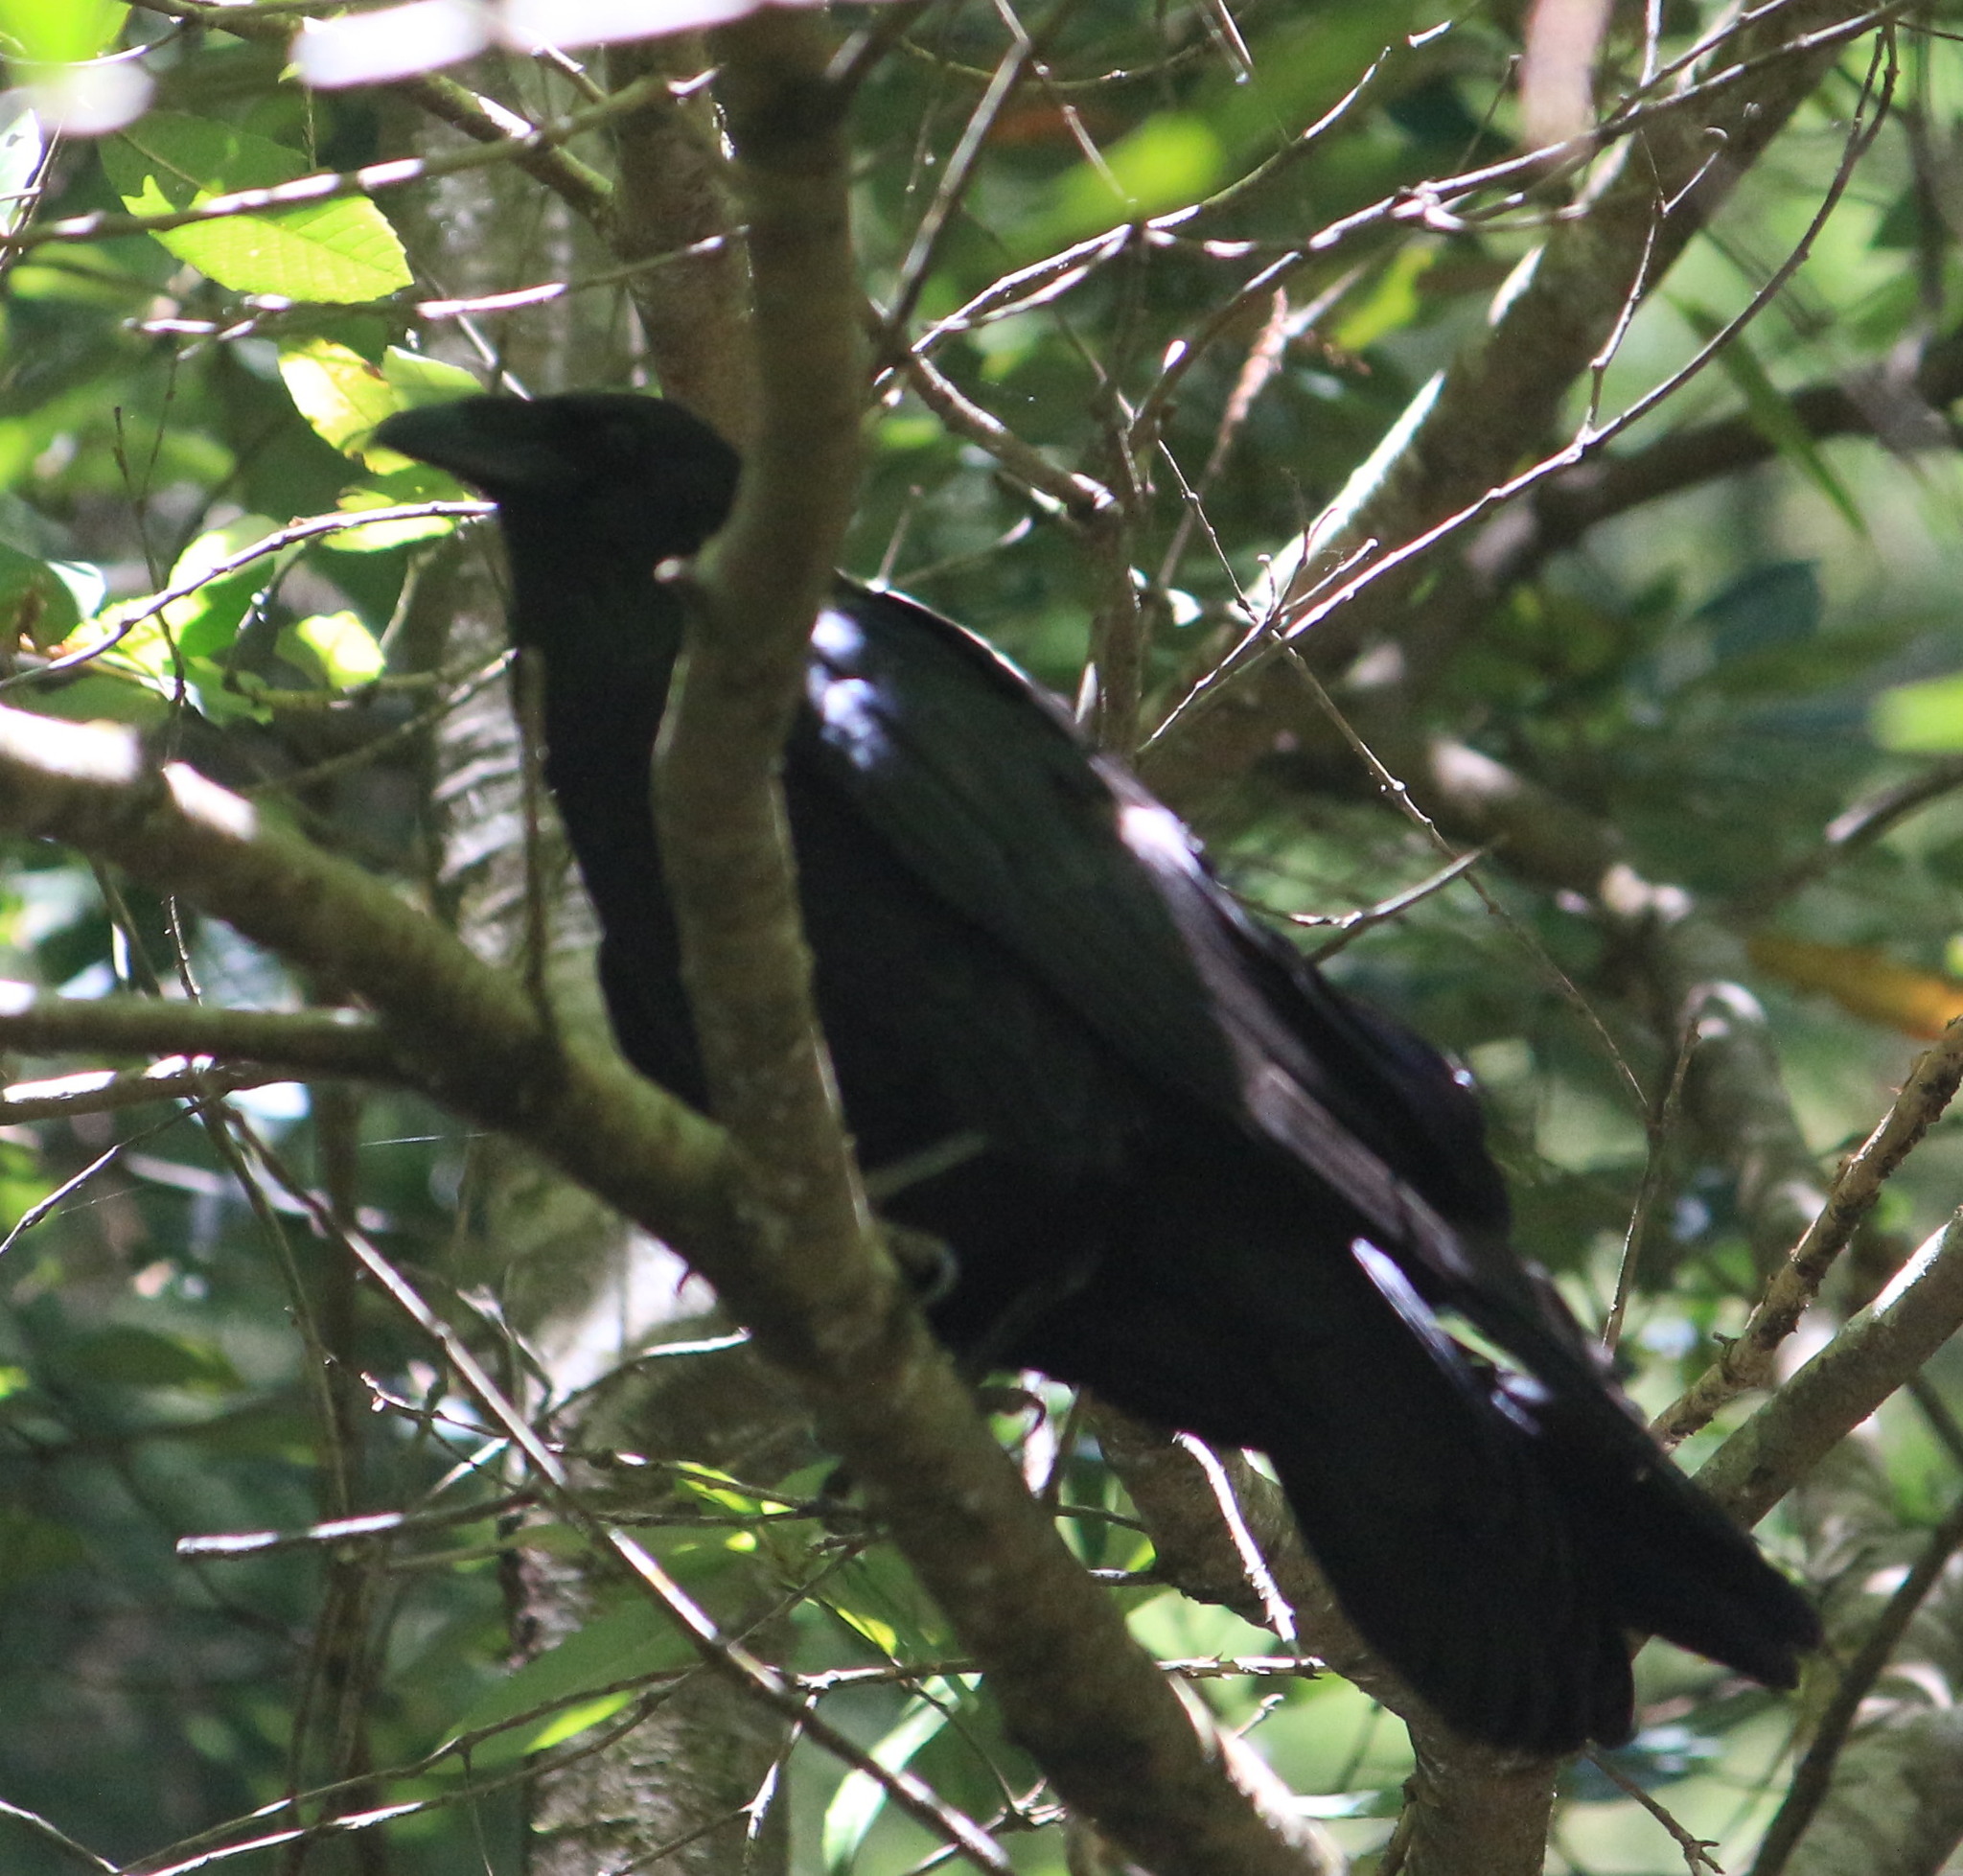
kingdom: Animalia
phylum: Chordata
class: Aves
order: Passeriformes
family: Corvidae
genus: Corvus
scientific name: Corvus corax
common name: Common raven
